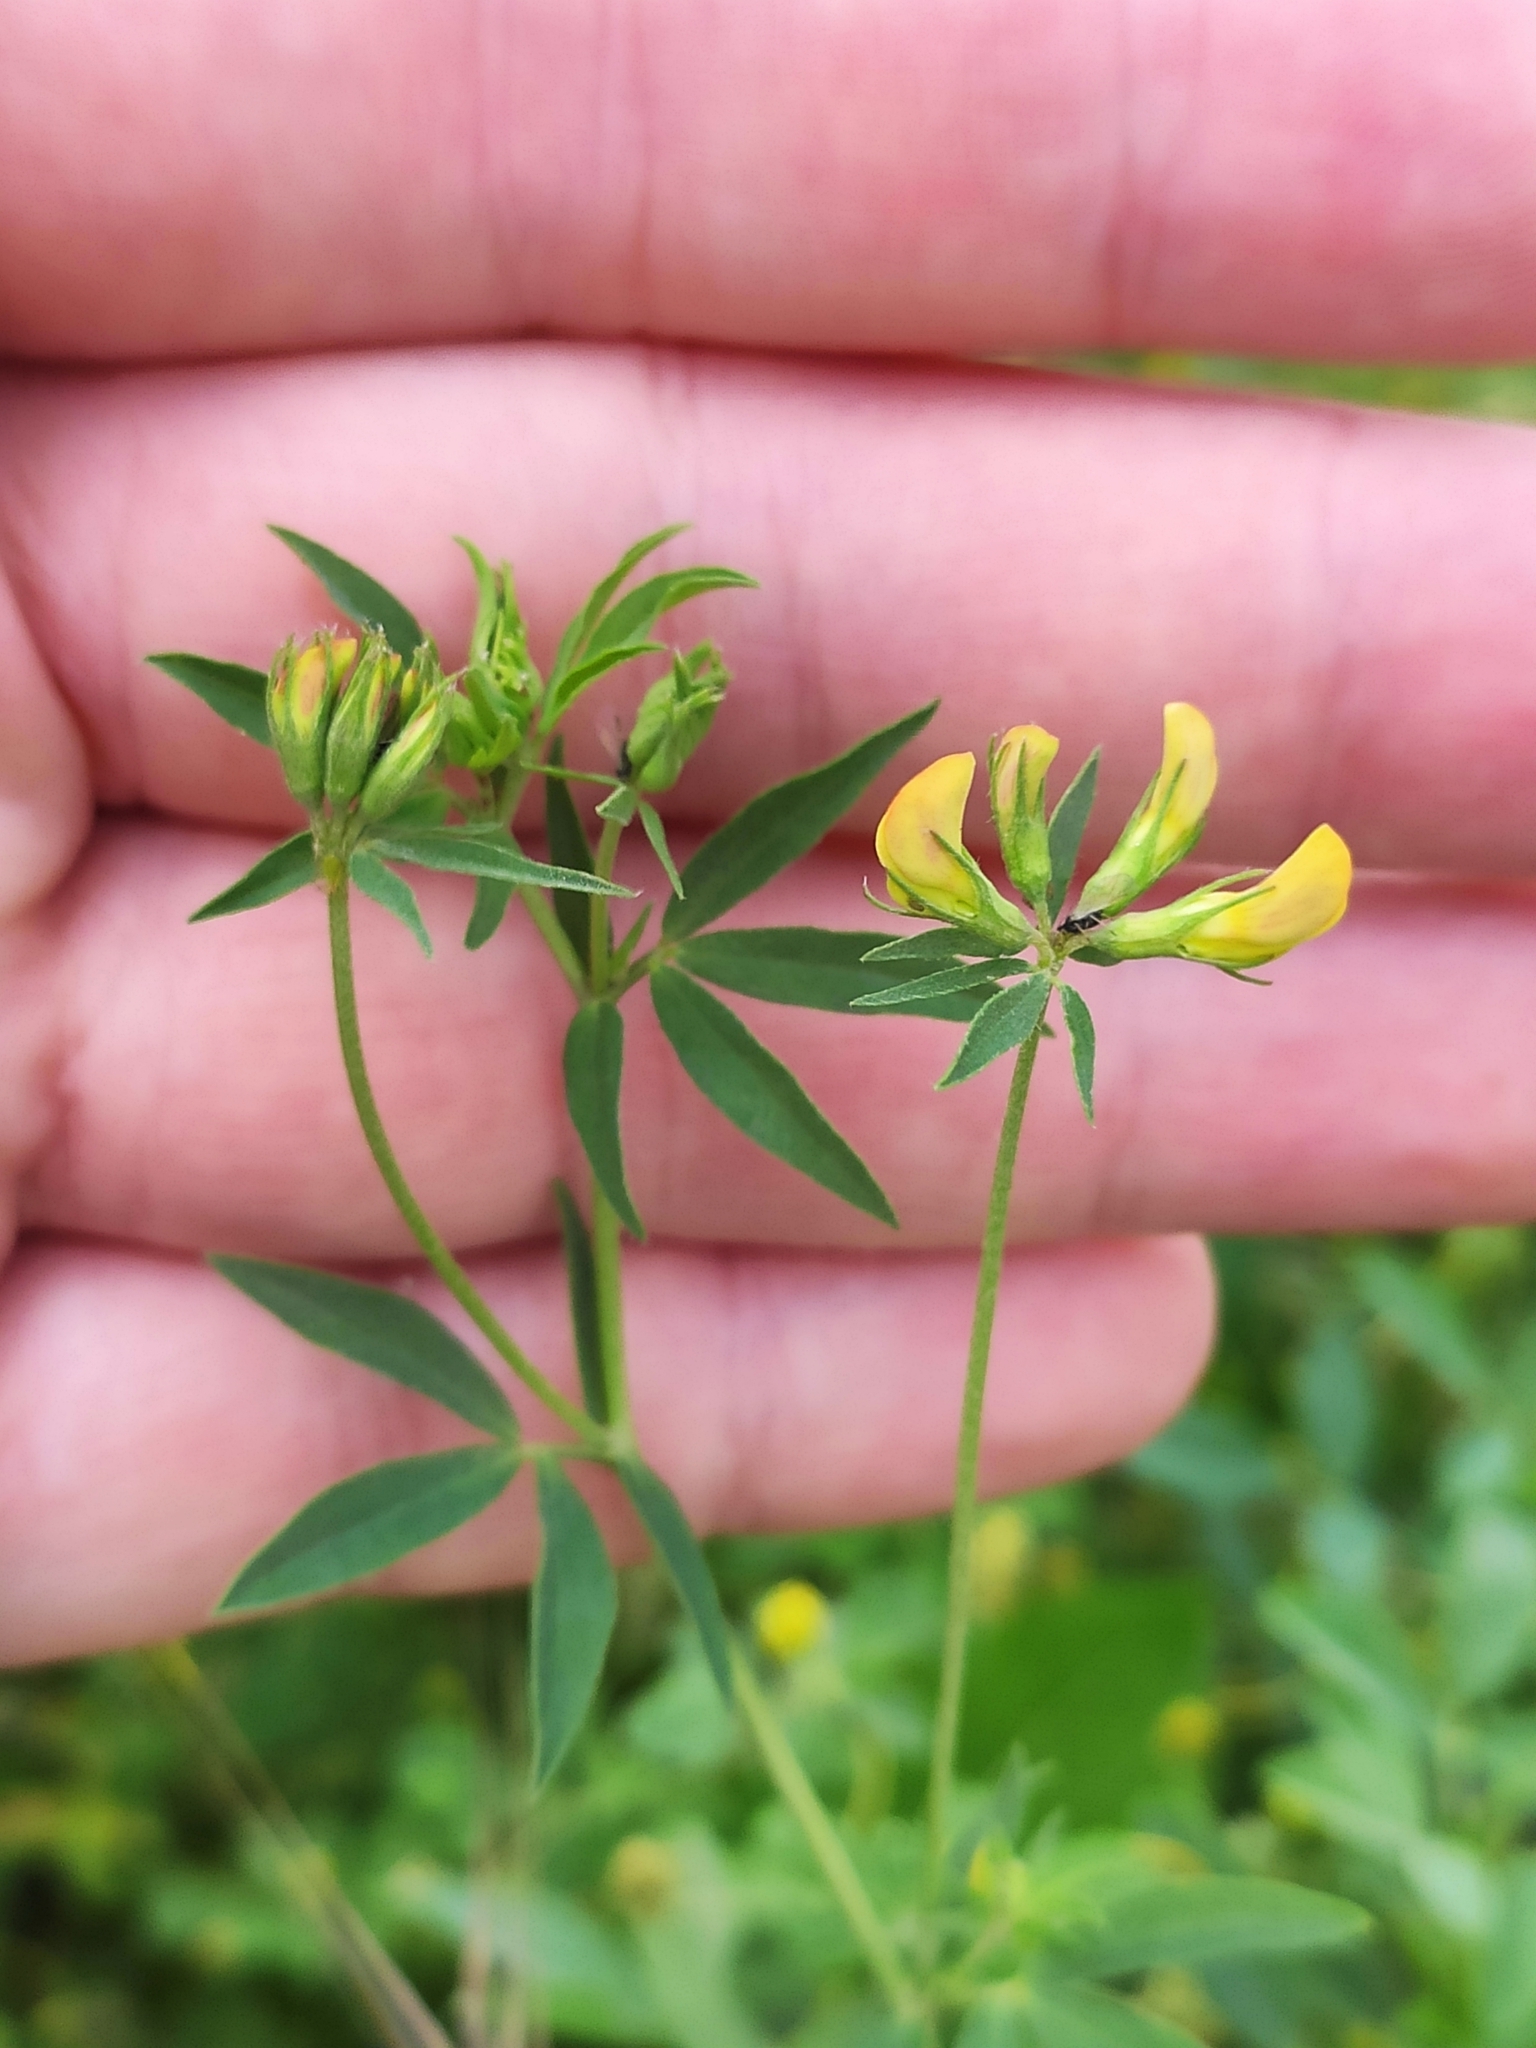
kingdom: Plantae
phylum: Tracheophyta
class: Magnoliopsida
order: Fabales
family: Fabaceae
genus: Lotus
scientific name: Lotus corniculatus
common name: Common bird's-foot-trefoil
